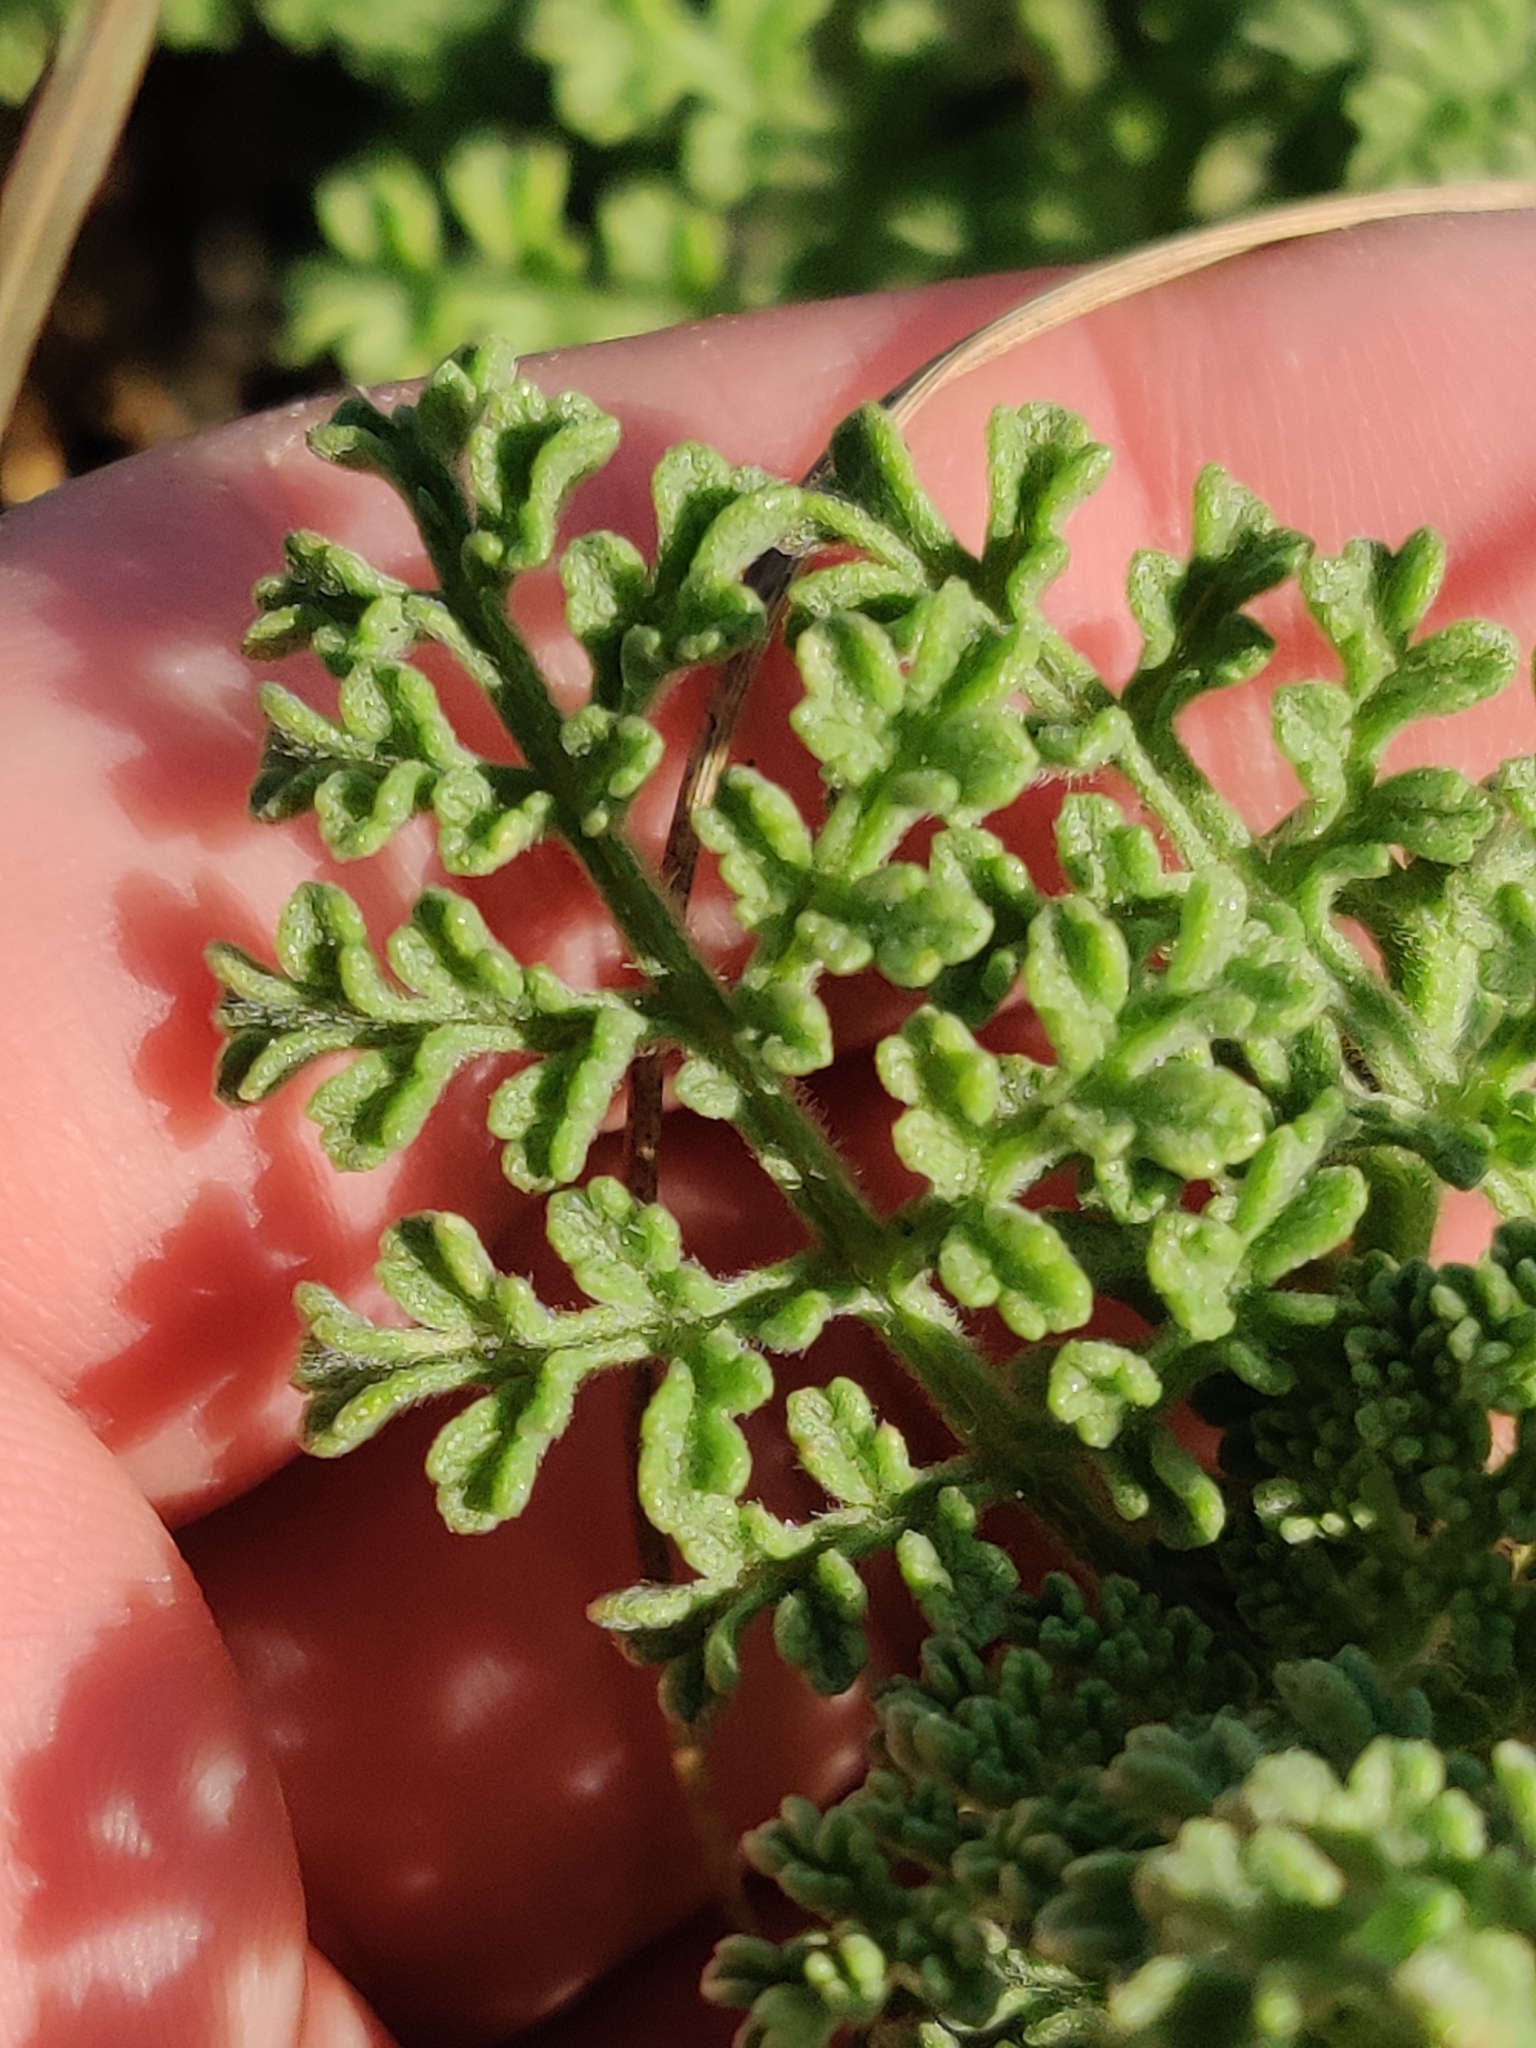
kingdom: Plantae
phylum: Tracheophyta
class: Magnoliopsida
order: Asterales
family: Asteraceae
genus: Ambrosia
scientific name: Ambrosia hispida
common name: Coastal ragweed
